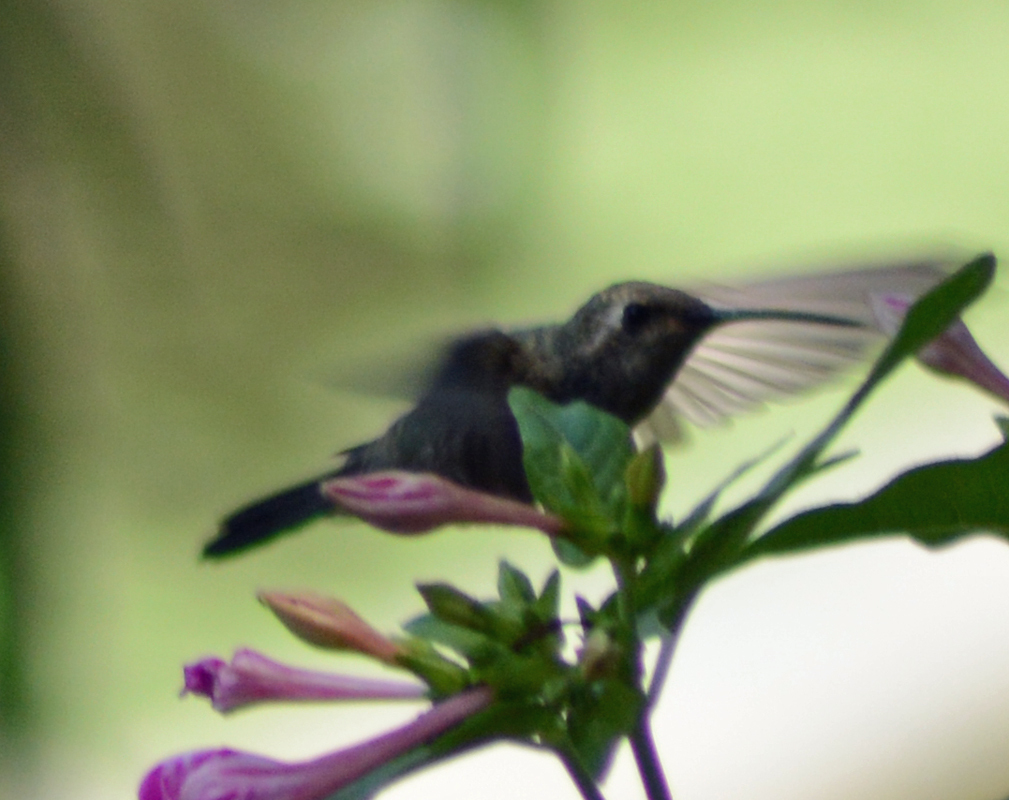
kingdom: Animalia
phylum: Chordata
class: Aves
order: Apodiformes
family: Trochilidae
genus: Cynanthus
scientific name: Cynanthus latirostris
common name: Broad-billed hummingbird
